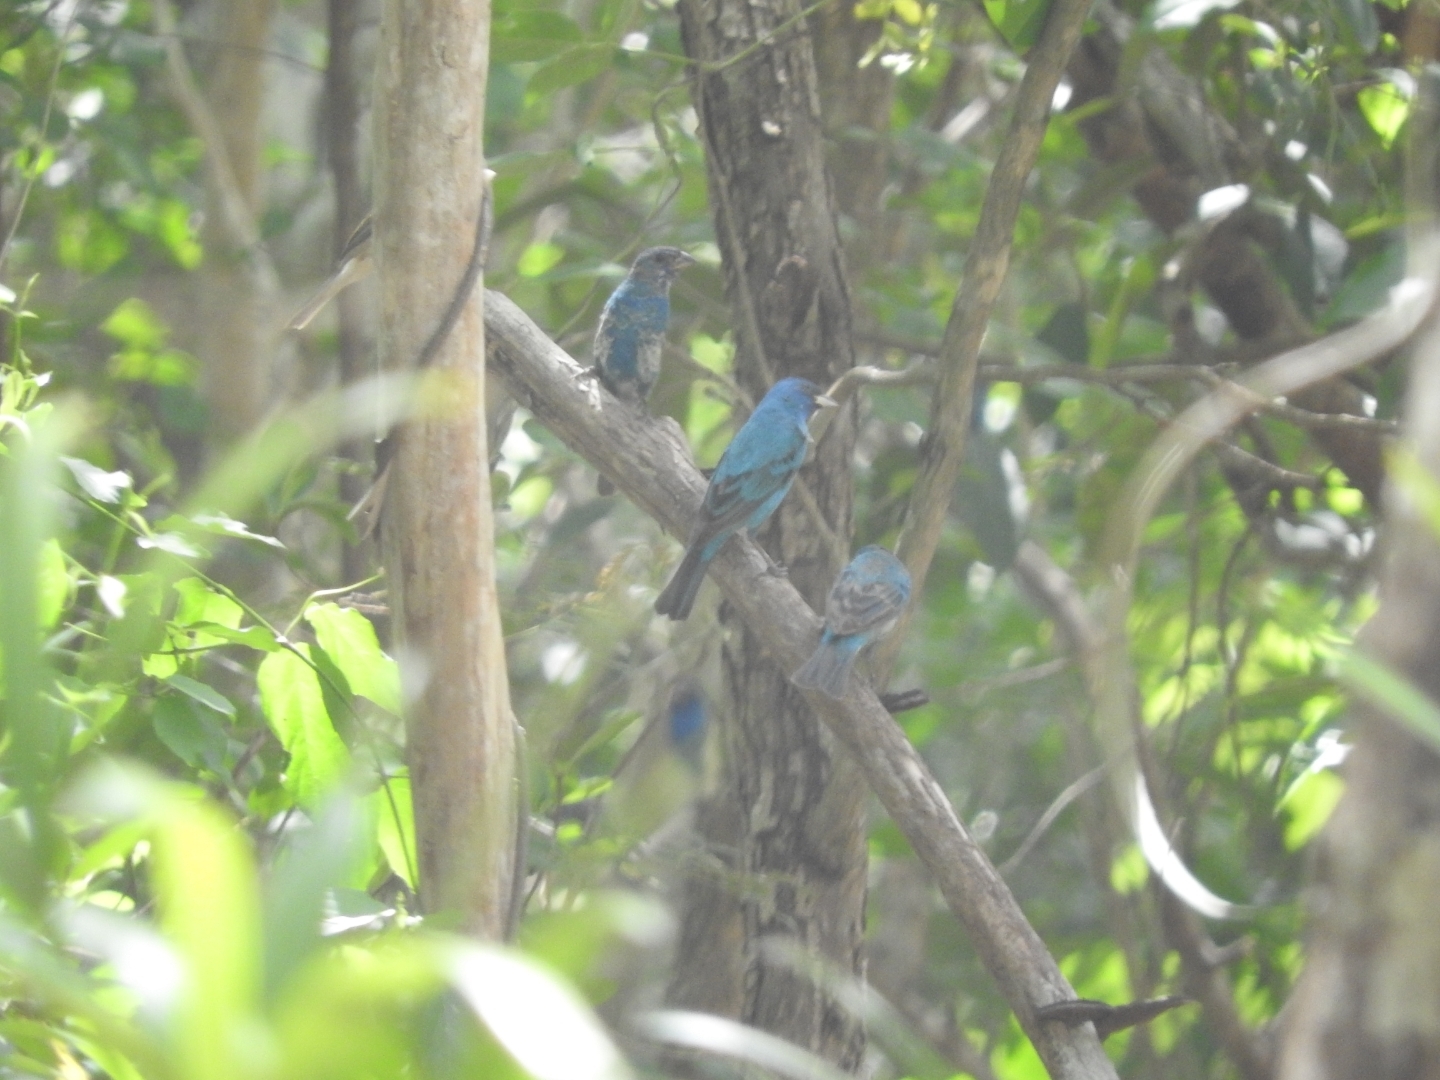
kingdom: Animalia
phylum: Chordata
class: Aves
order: Passeriformes
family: Cardinalidae
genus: Passerina
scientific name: Passerina cyanea
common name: Indigo bunting
